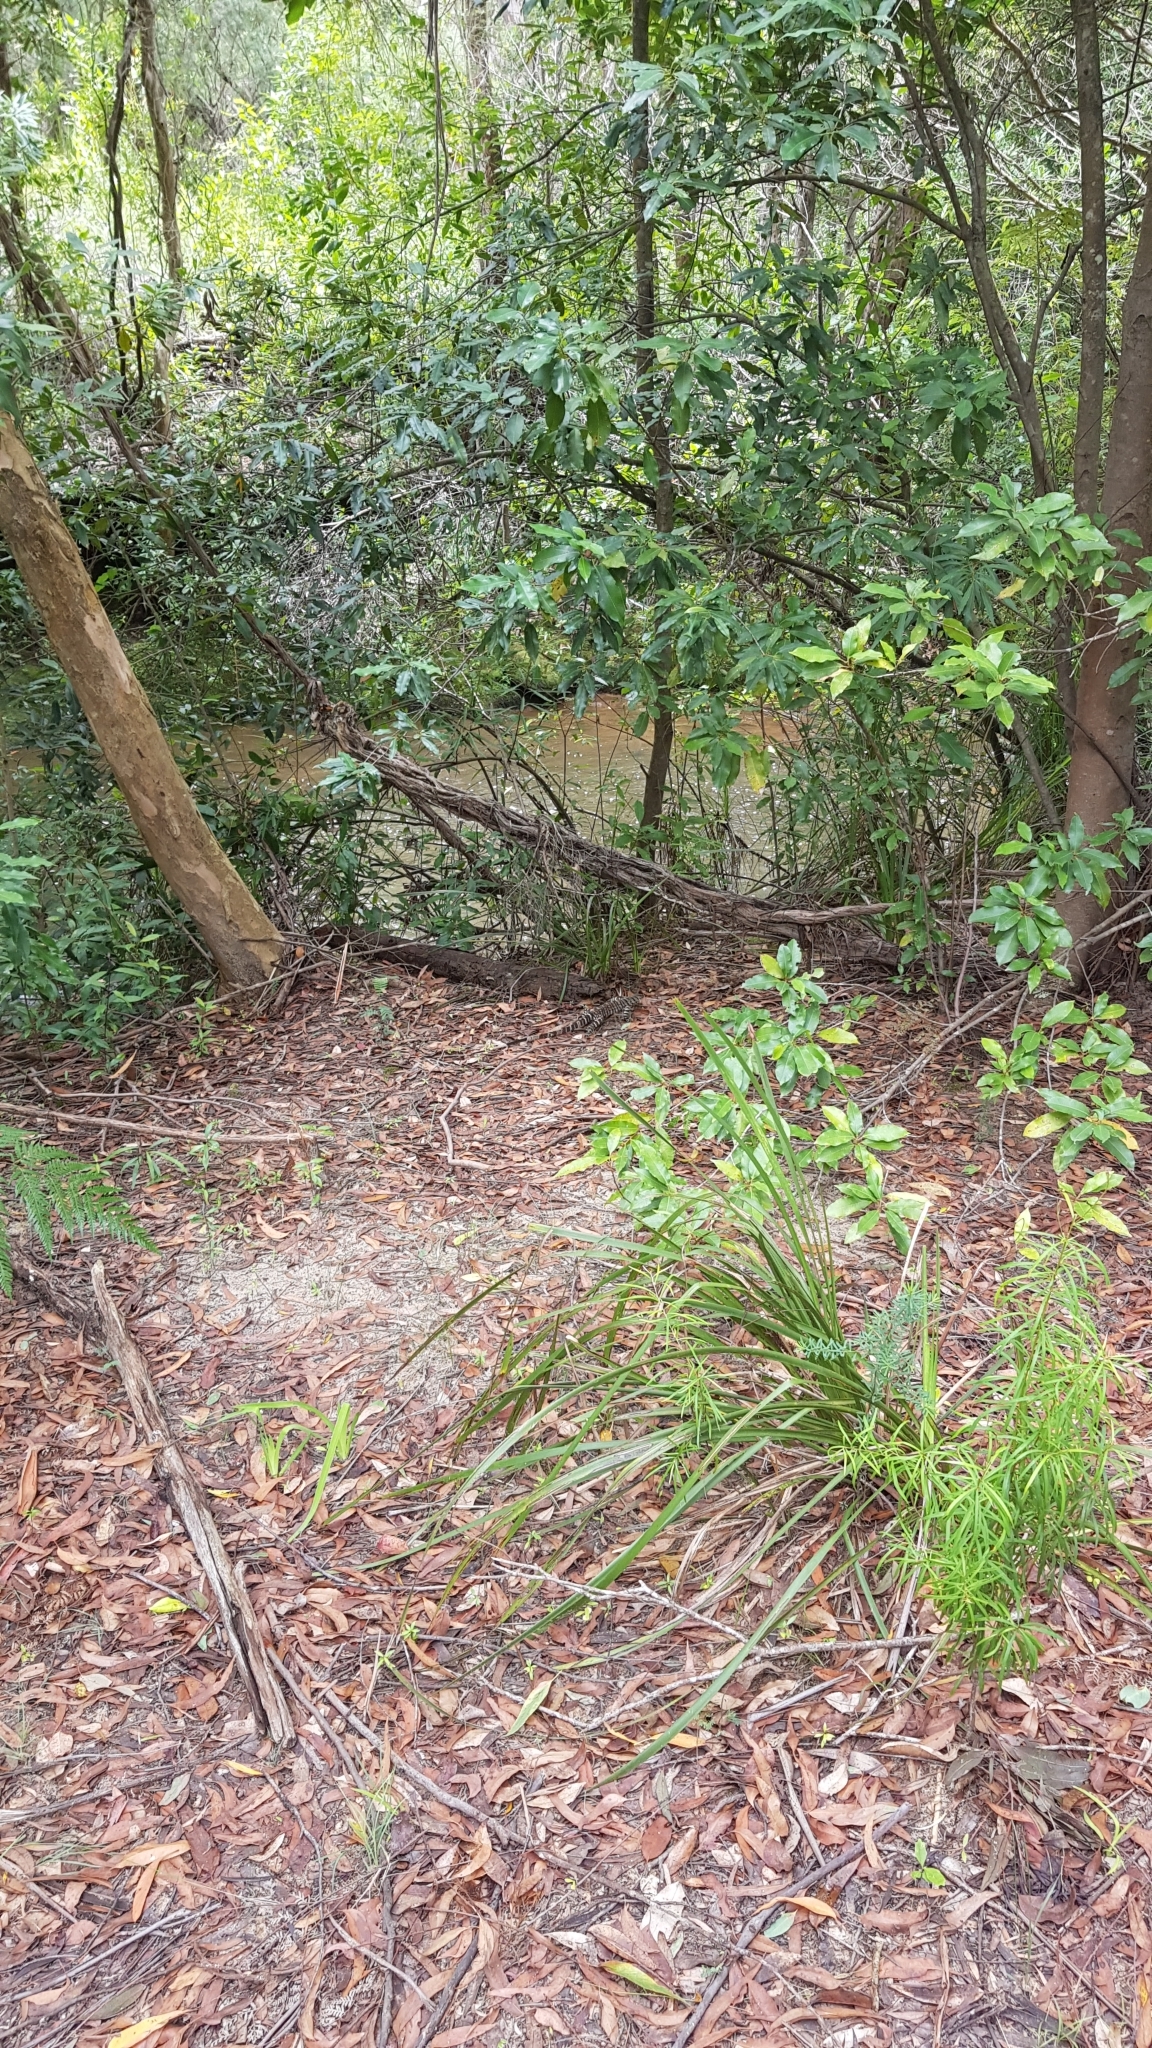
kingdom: Animalia
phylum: Chordata
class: Squamata
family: Varanidae
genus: Varanus
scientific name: Varanus varius
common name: Lace monitor
